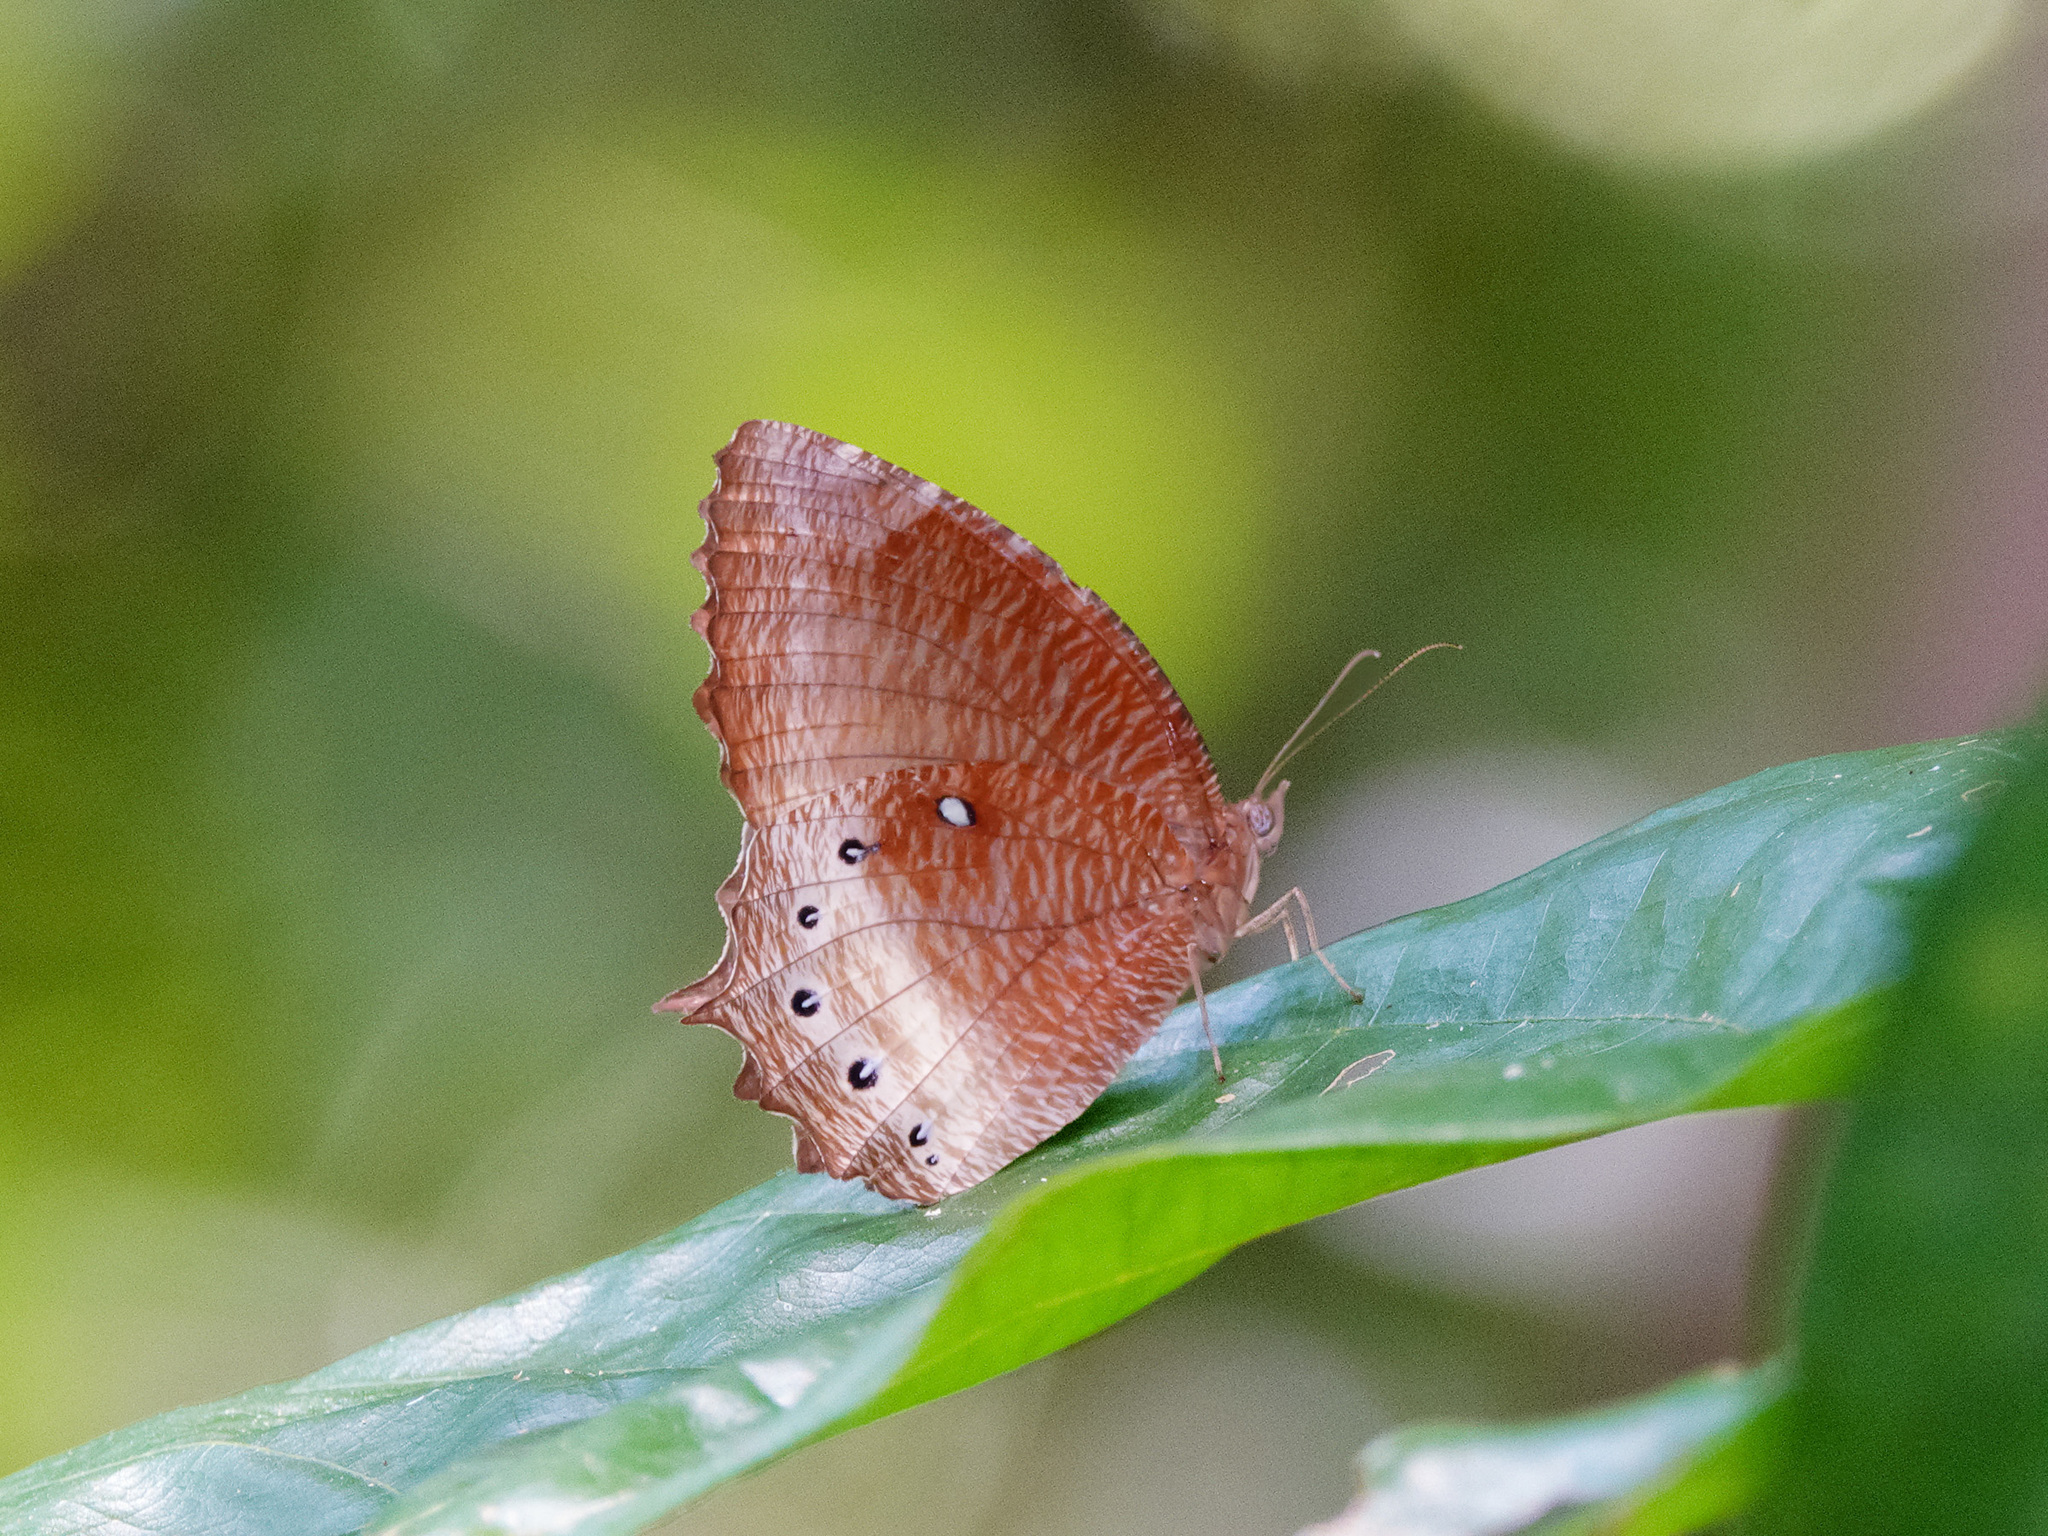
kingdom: Animalia
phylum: Arthropoda
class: Insecta
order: Lepidoptera
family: Nymphalidae
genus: Elymnias
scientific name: Elymnias panthera
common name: Tawny palmfly
